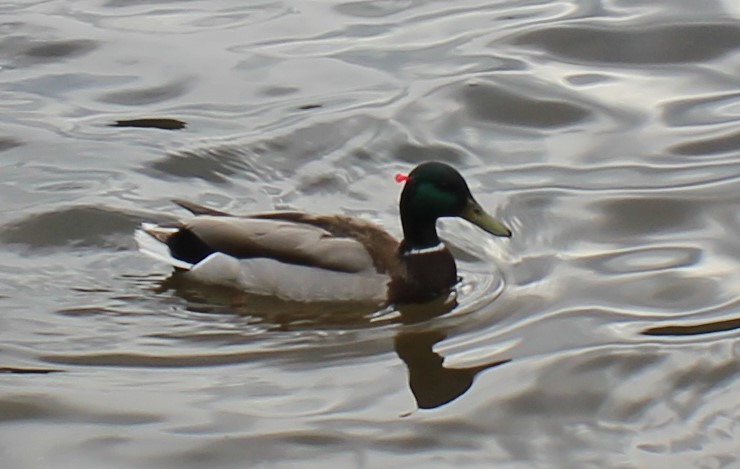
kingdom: Animalia
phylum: Chordata
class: Aves
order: Anseriformes
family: Anatidae
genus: Anas
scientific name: Anas platyrhynchos
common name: Mallard
